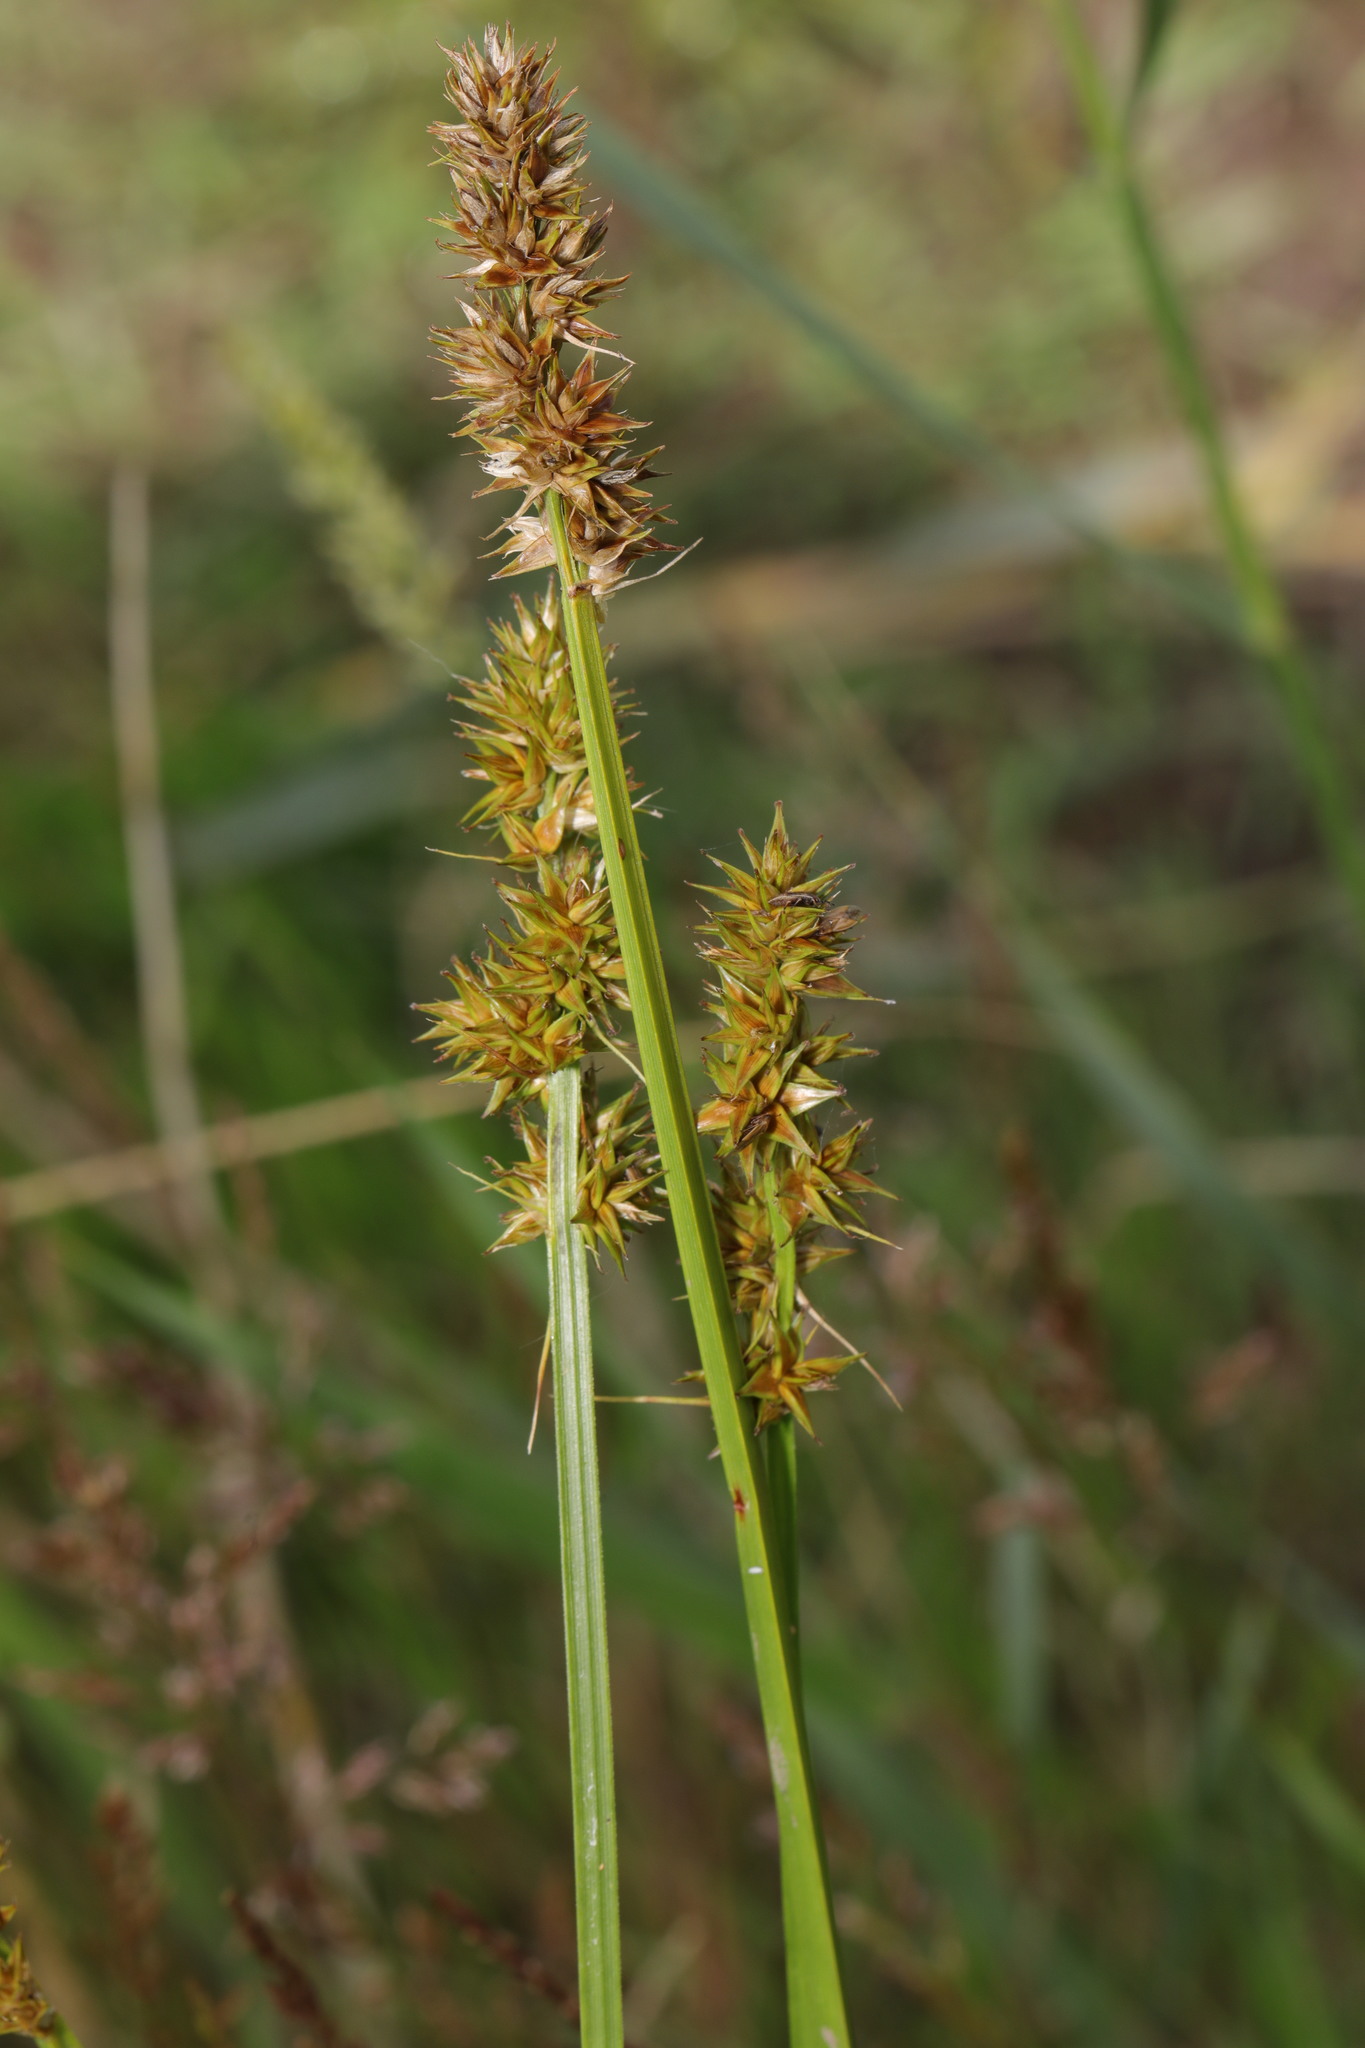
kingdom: Plantae
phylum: Tracheophyta
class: Liliopsida
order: Poales
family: Cyperaceae
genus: Carex
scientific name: Carex otrubae
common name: False fox-sedge
